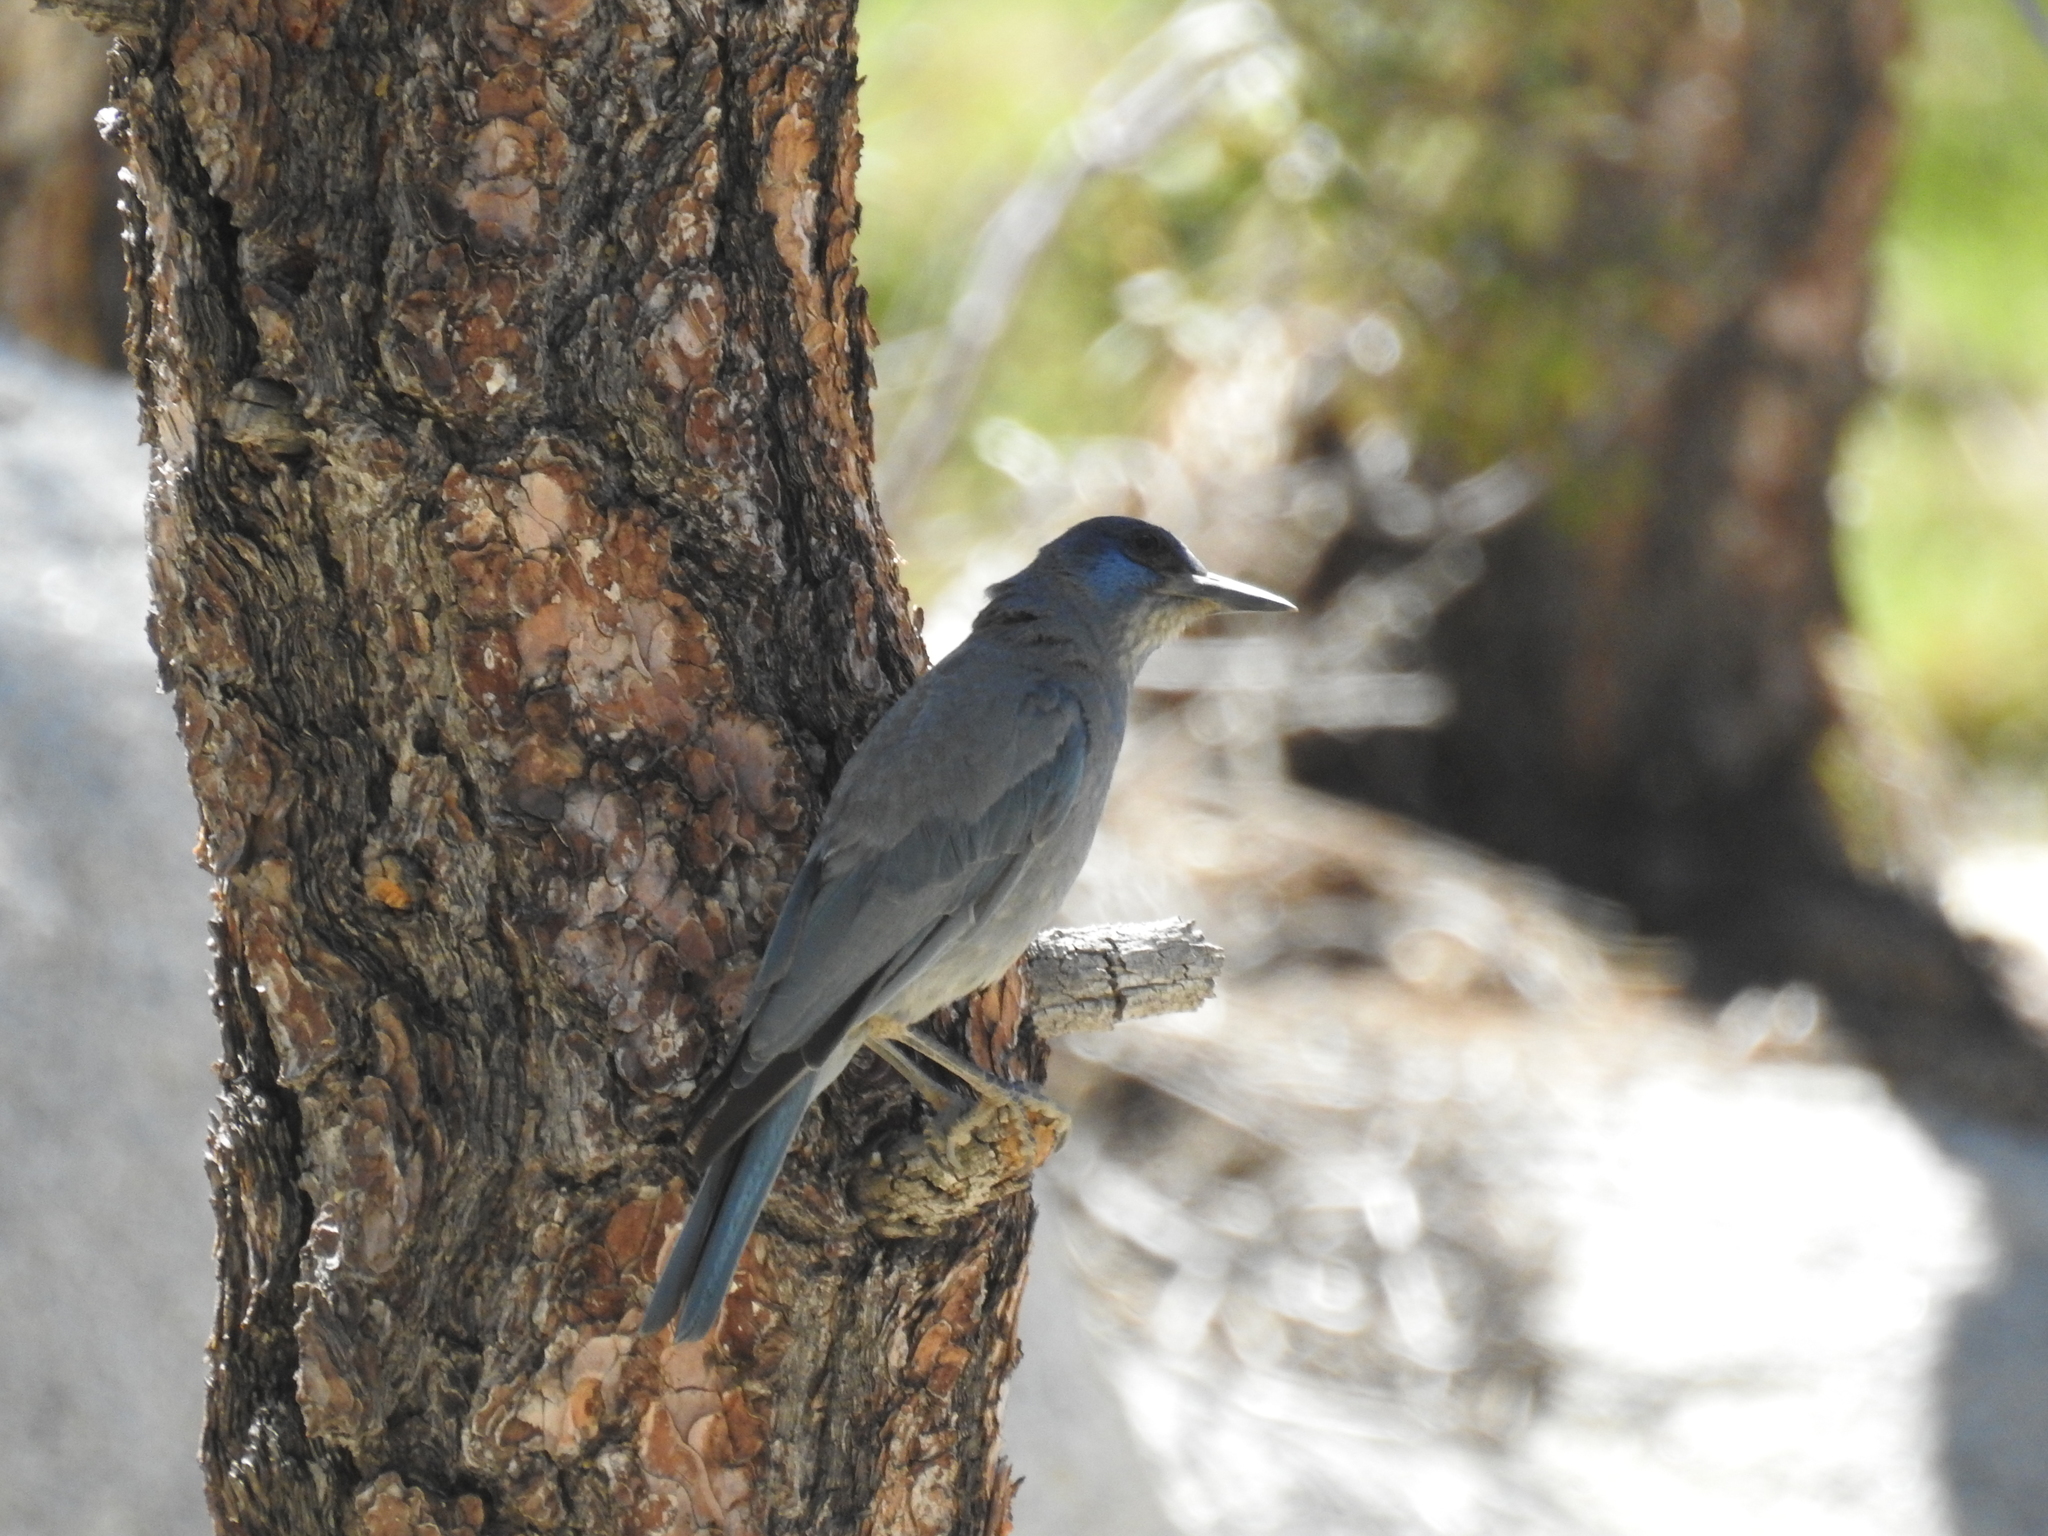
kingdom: Animalia
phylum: Chordata
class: Aves
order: Passeriformes
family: Corvidae
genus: Gymnorhinus
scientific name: Gymnorhinus cyanocephalus
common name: Pinyon jay
